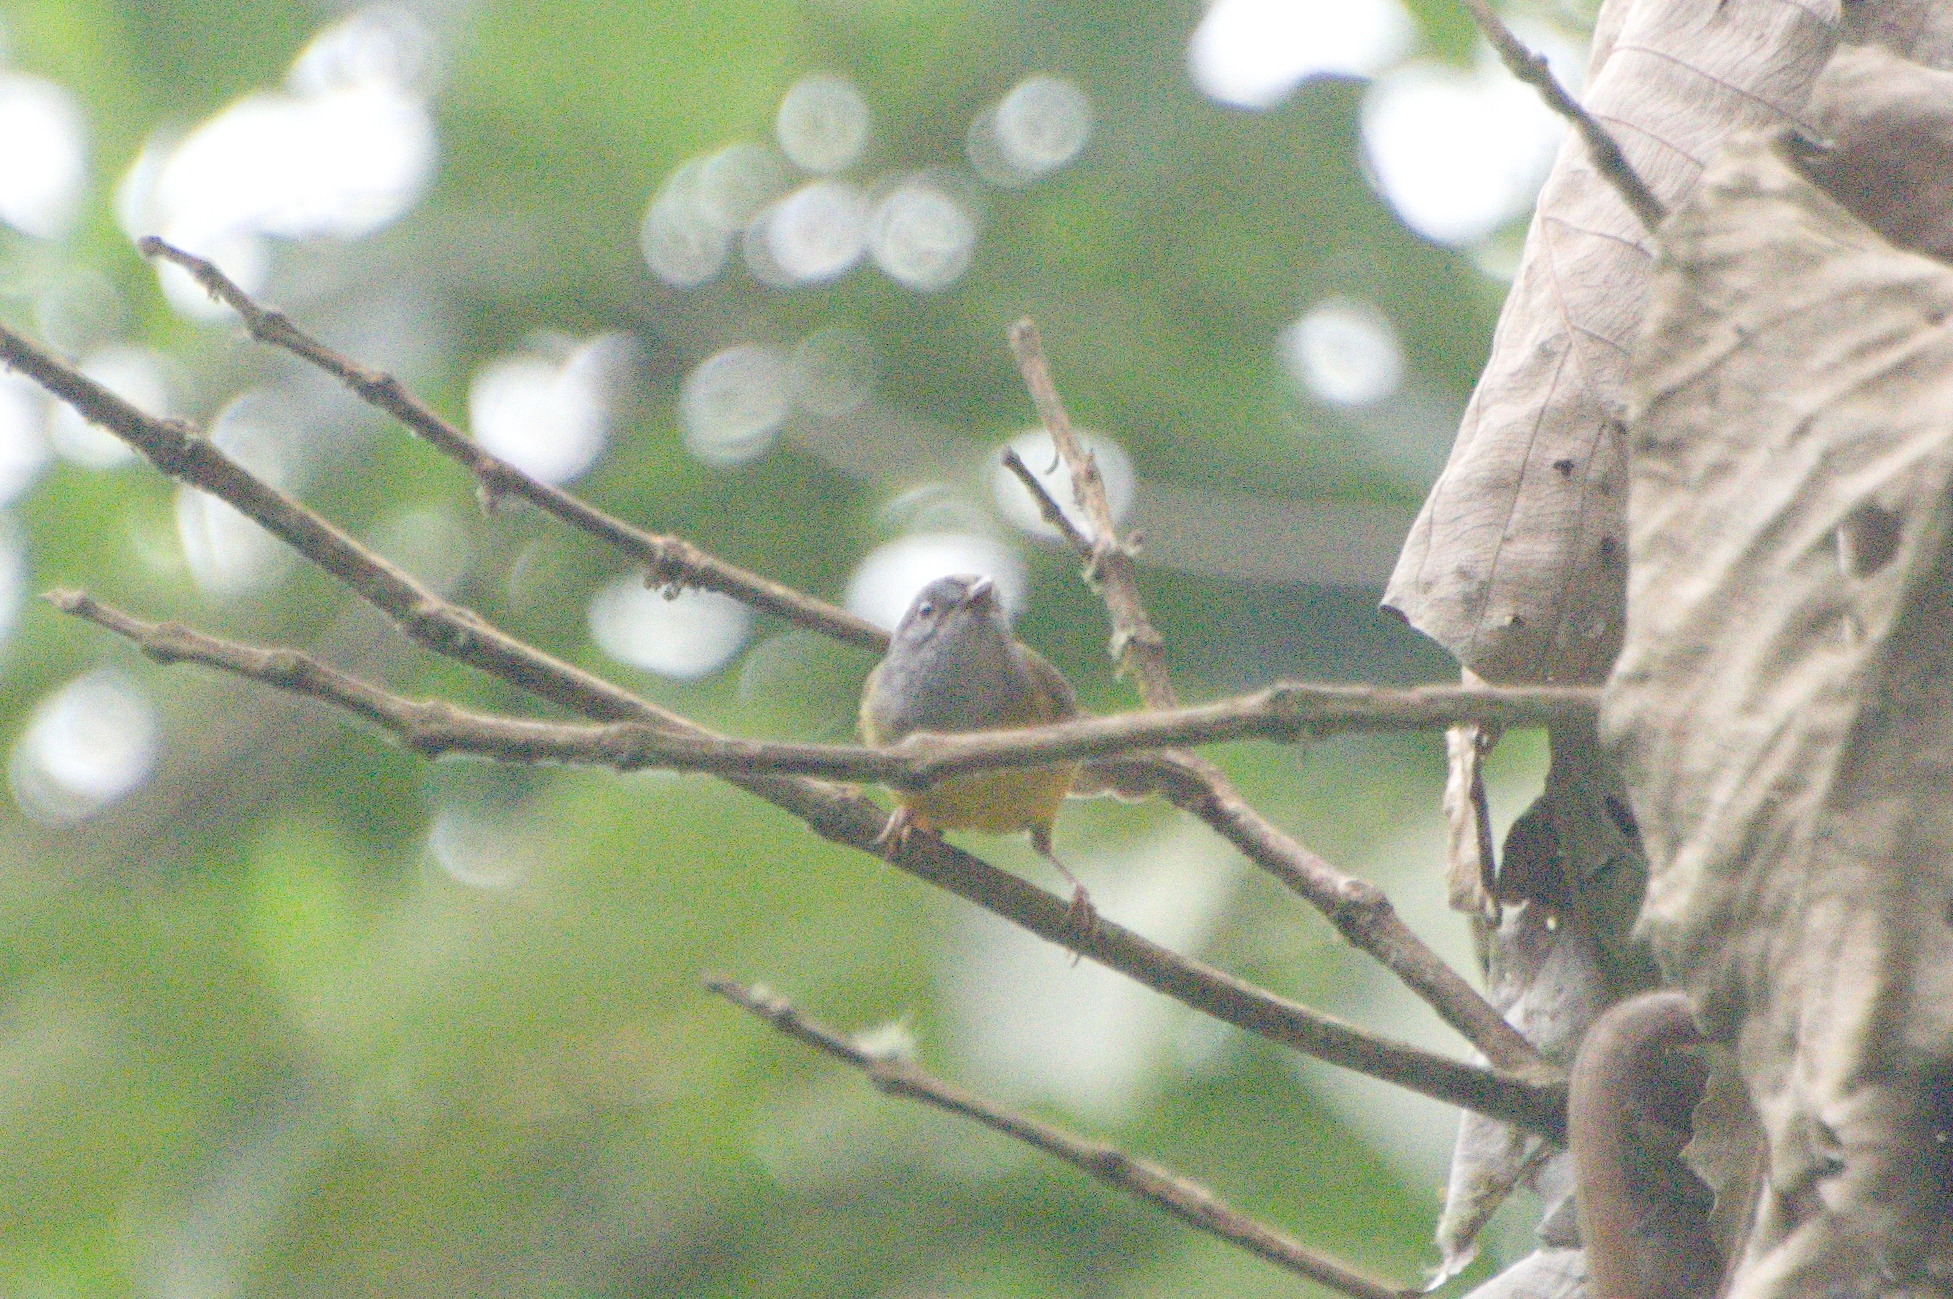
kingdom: Animalia
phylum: Chordata
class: Aves
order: Passeriformes
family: Parulidae
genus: Myiothlypis
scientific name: Myiothlypis coronata
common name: Russet-crowned warbler
